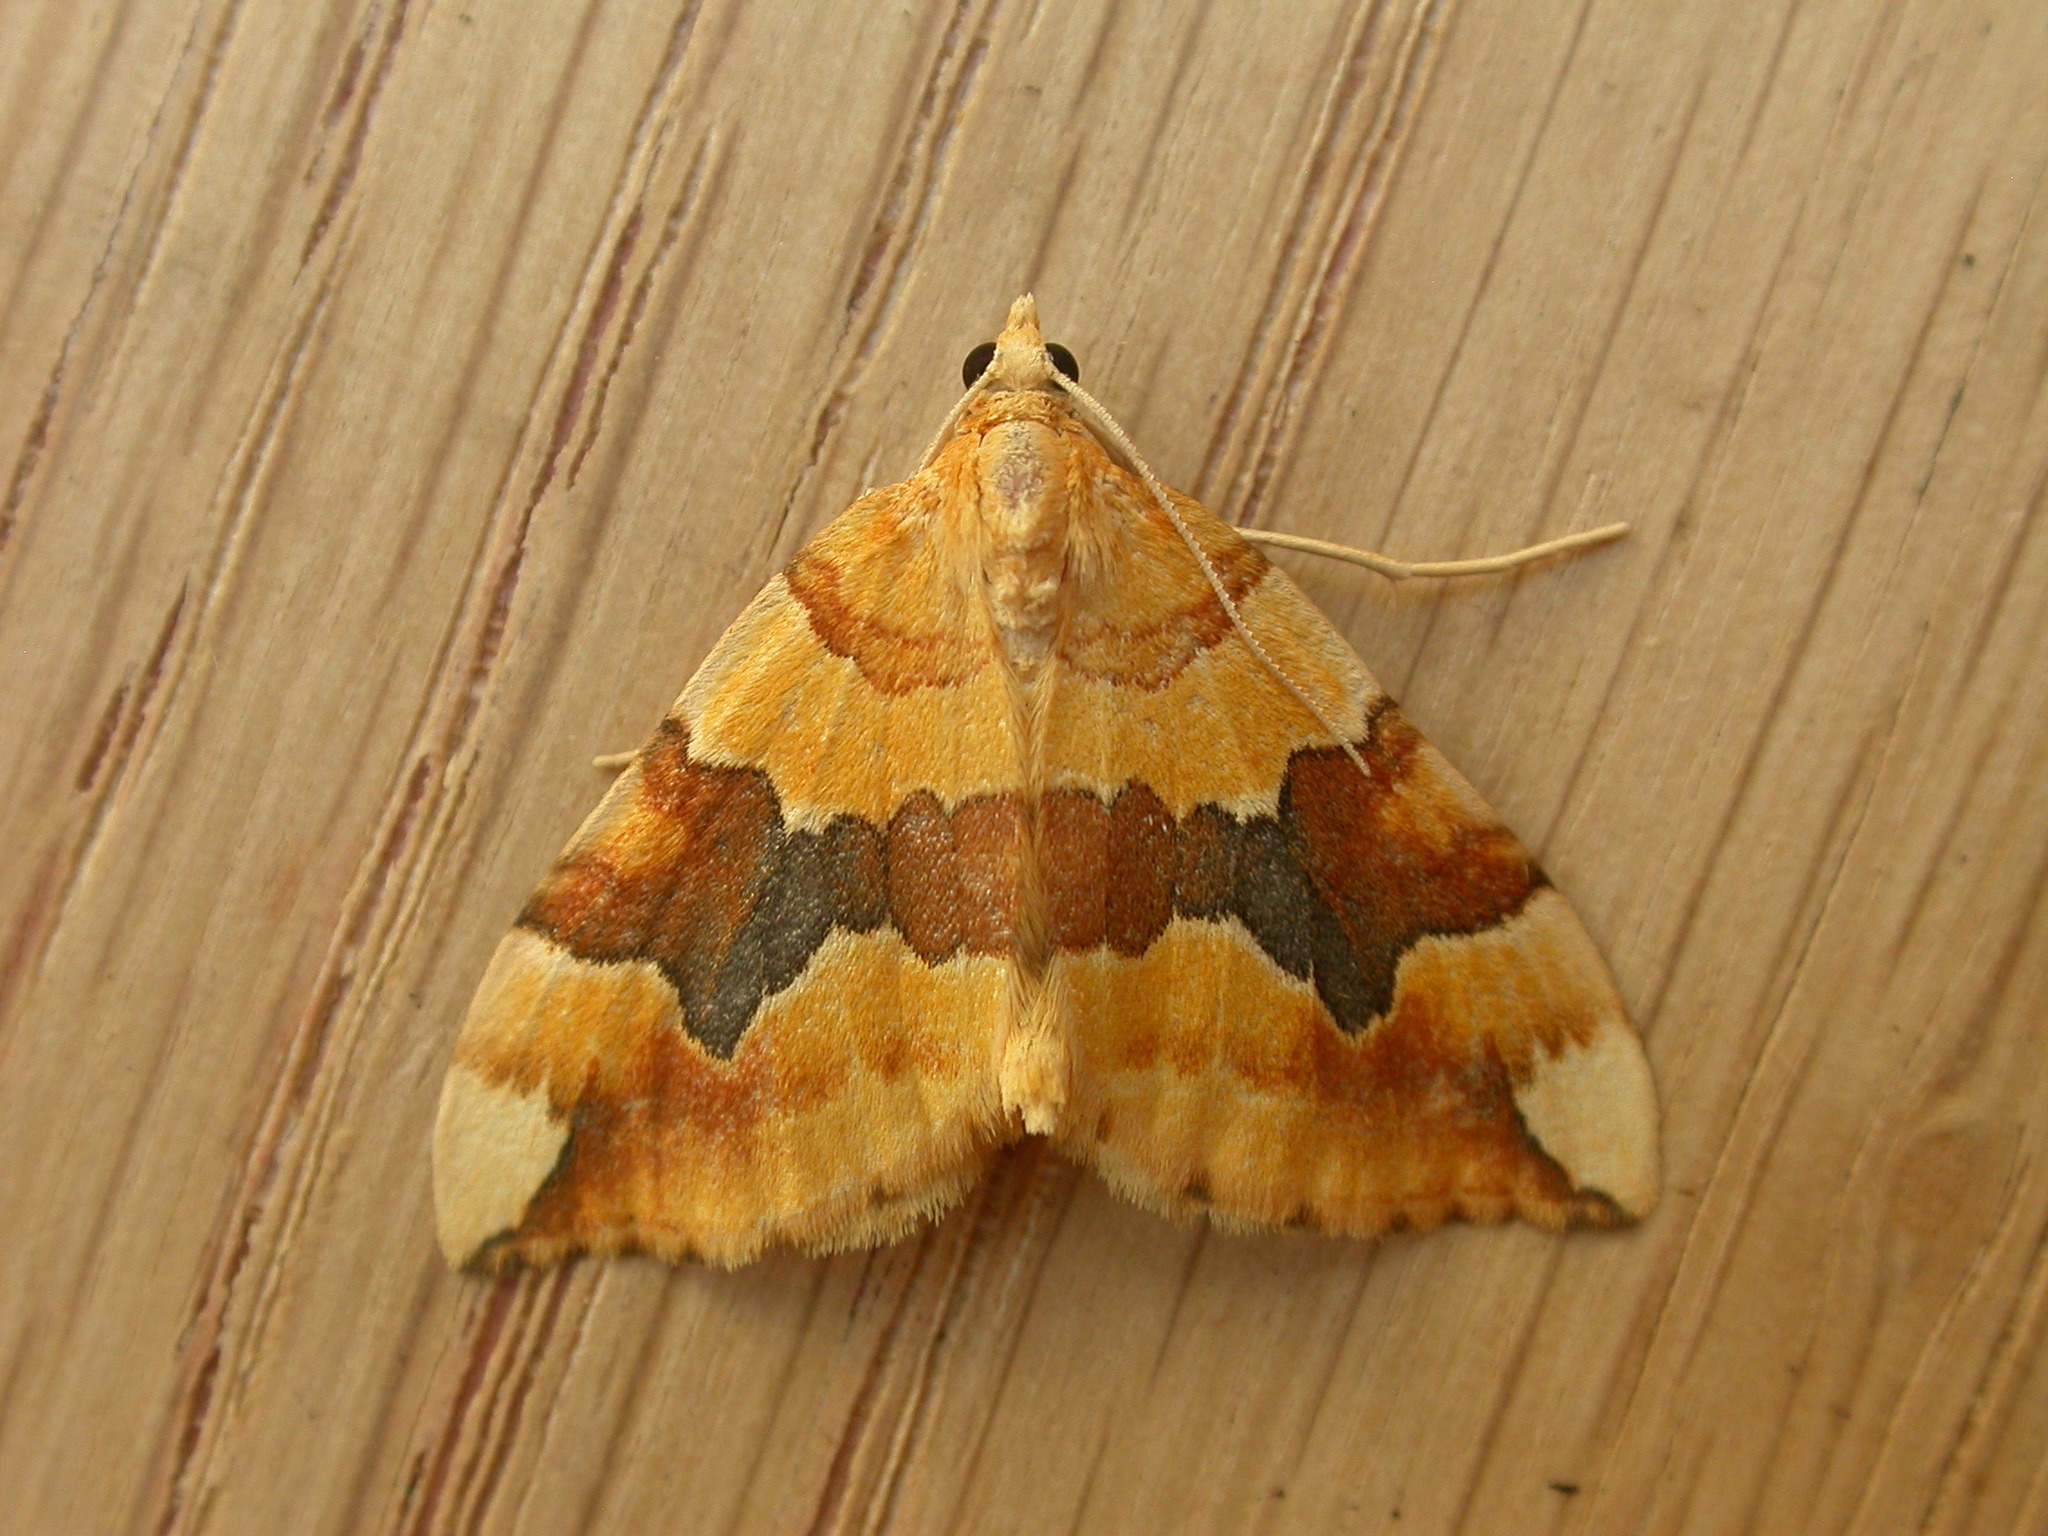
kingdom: Animalia
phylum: Arthropoda
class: Insecta
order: Lepidoptera
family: Geometridae
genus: Cidaria
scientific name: Cidaria fulvata
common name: Barred yellow
